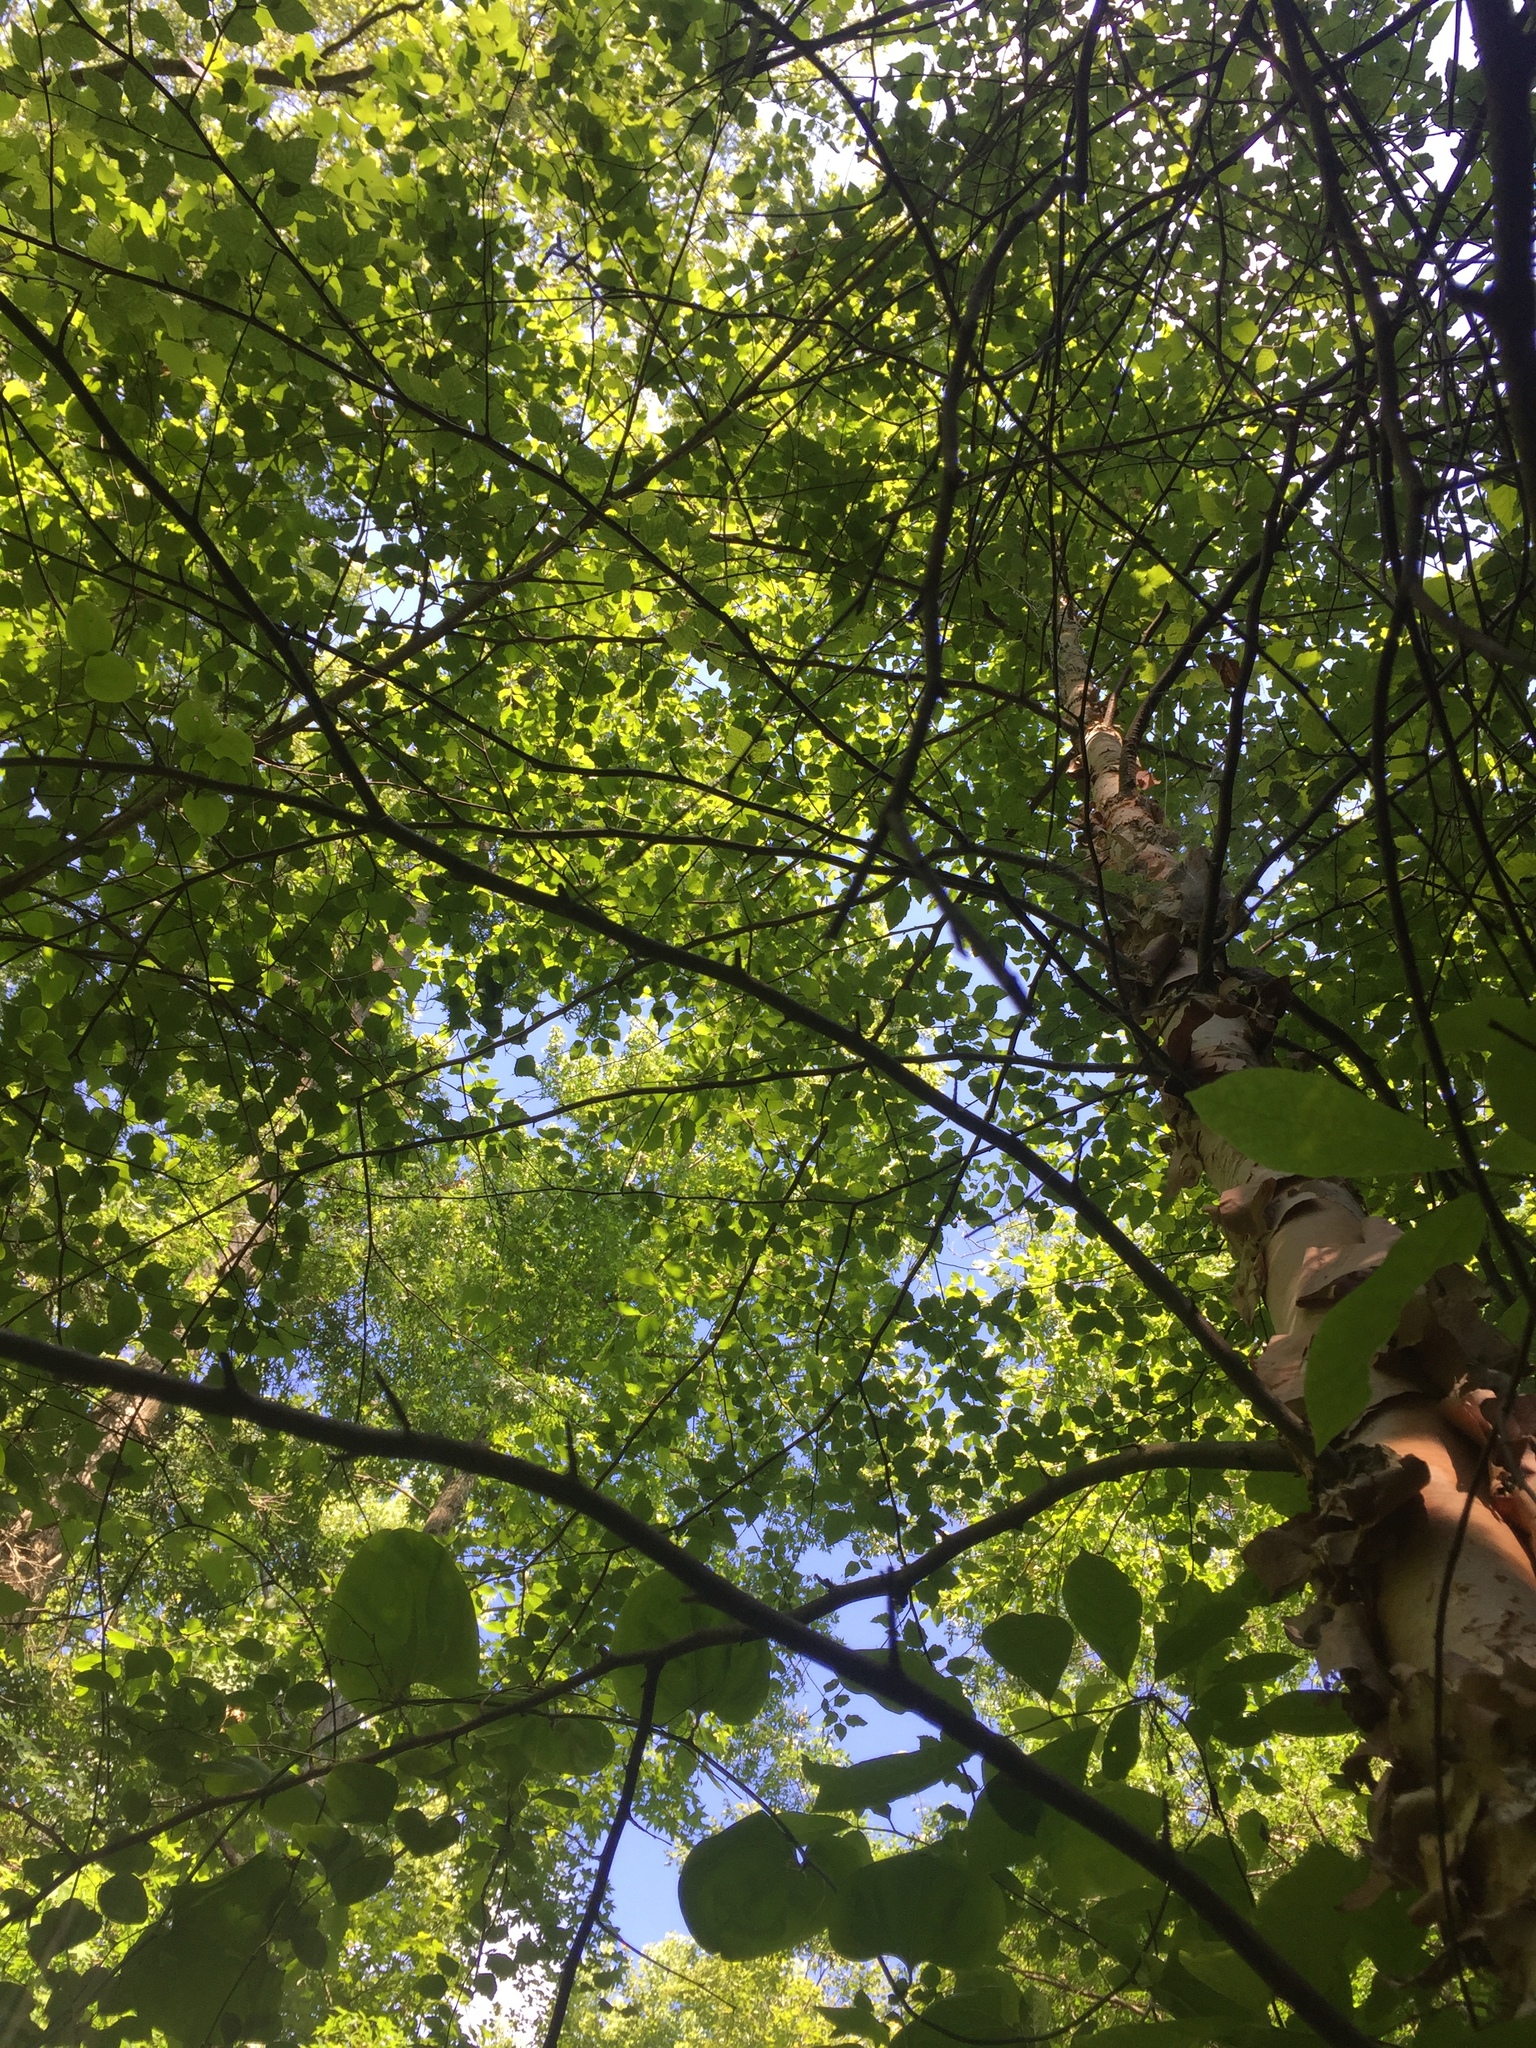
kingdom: Plantae
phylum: Tracheophyta
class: Magnoliopsida
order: Fagales
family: Betulaceae
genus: Betula
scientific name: Betula nigra
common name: Black birch
